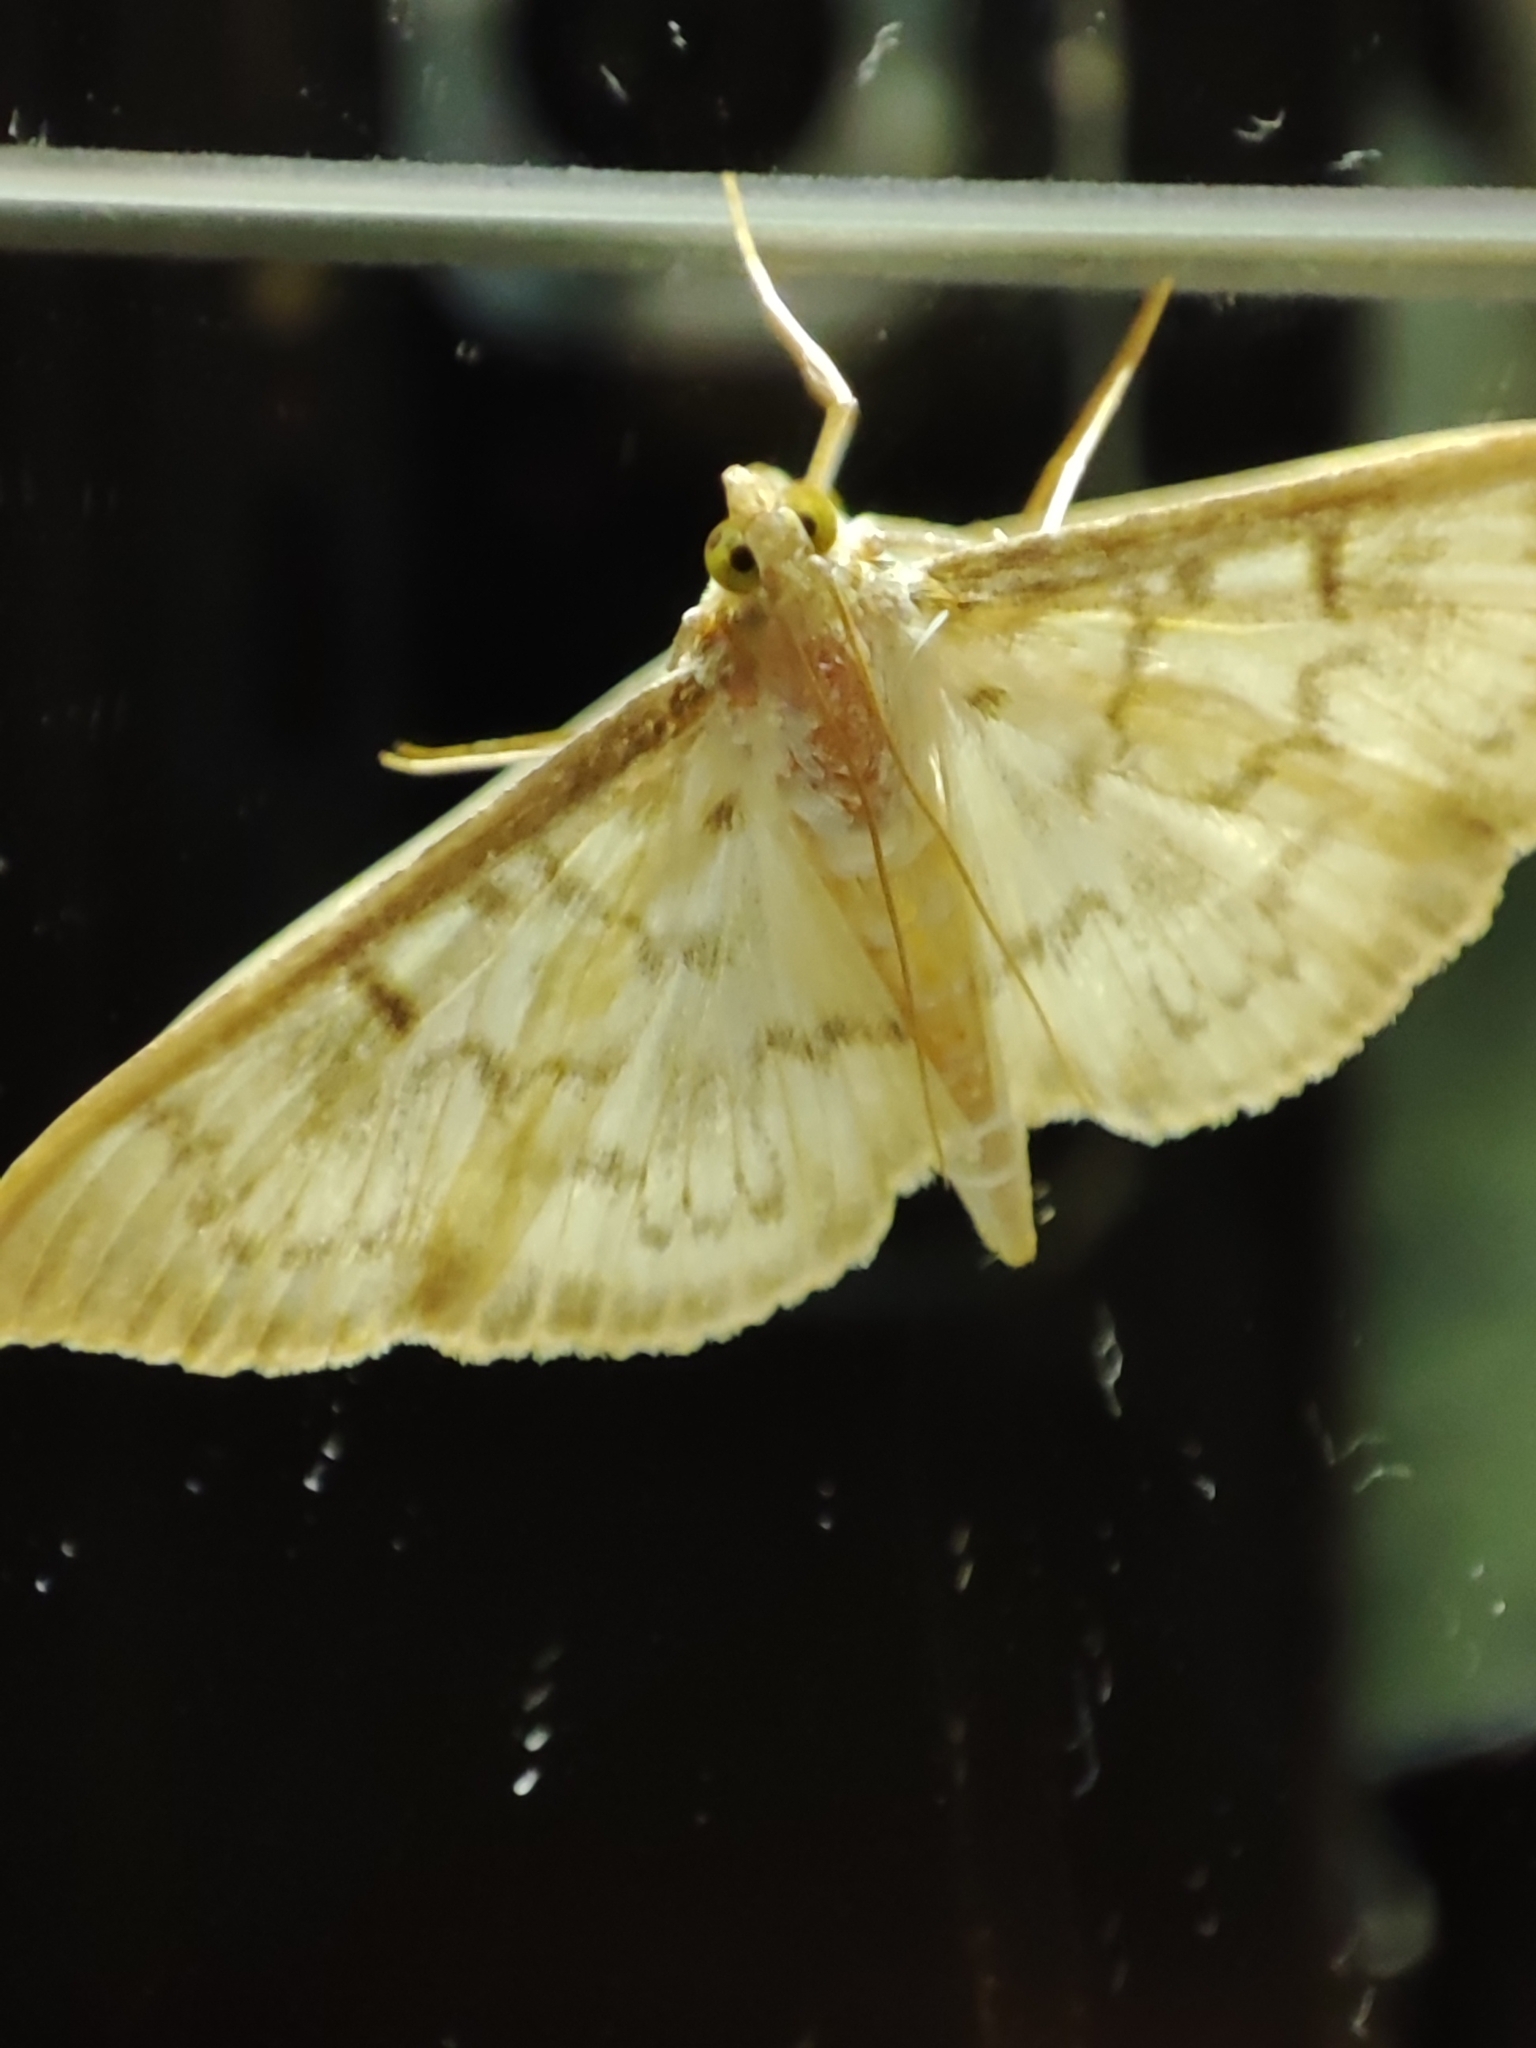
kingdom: Animalia
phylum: Arthropoda
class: Insecta
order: Lepidoptera
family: Crambidae
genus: Patania
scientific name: Patania ruralis
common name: Mother of pearl
